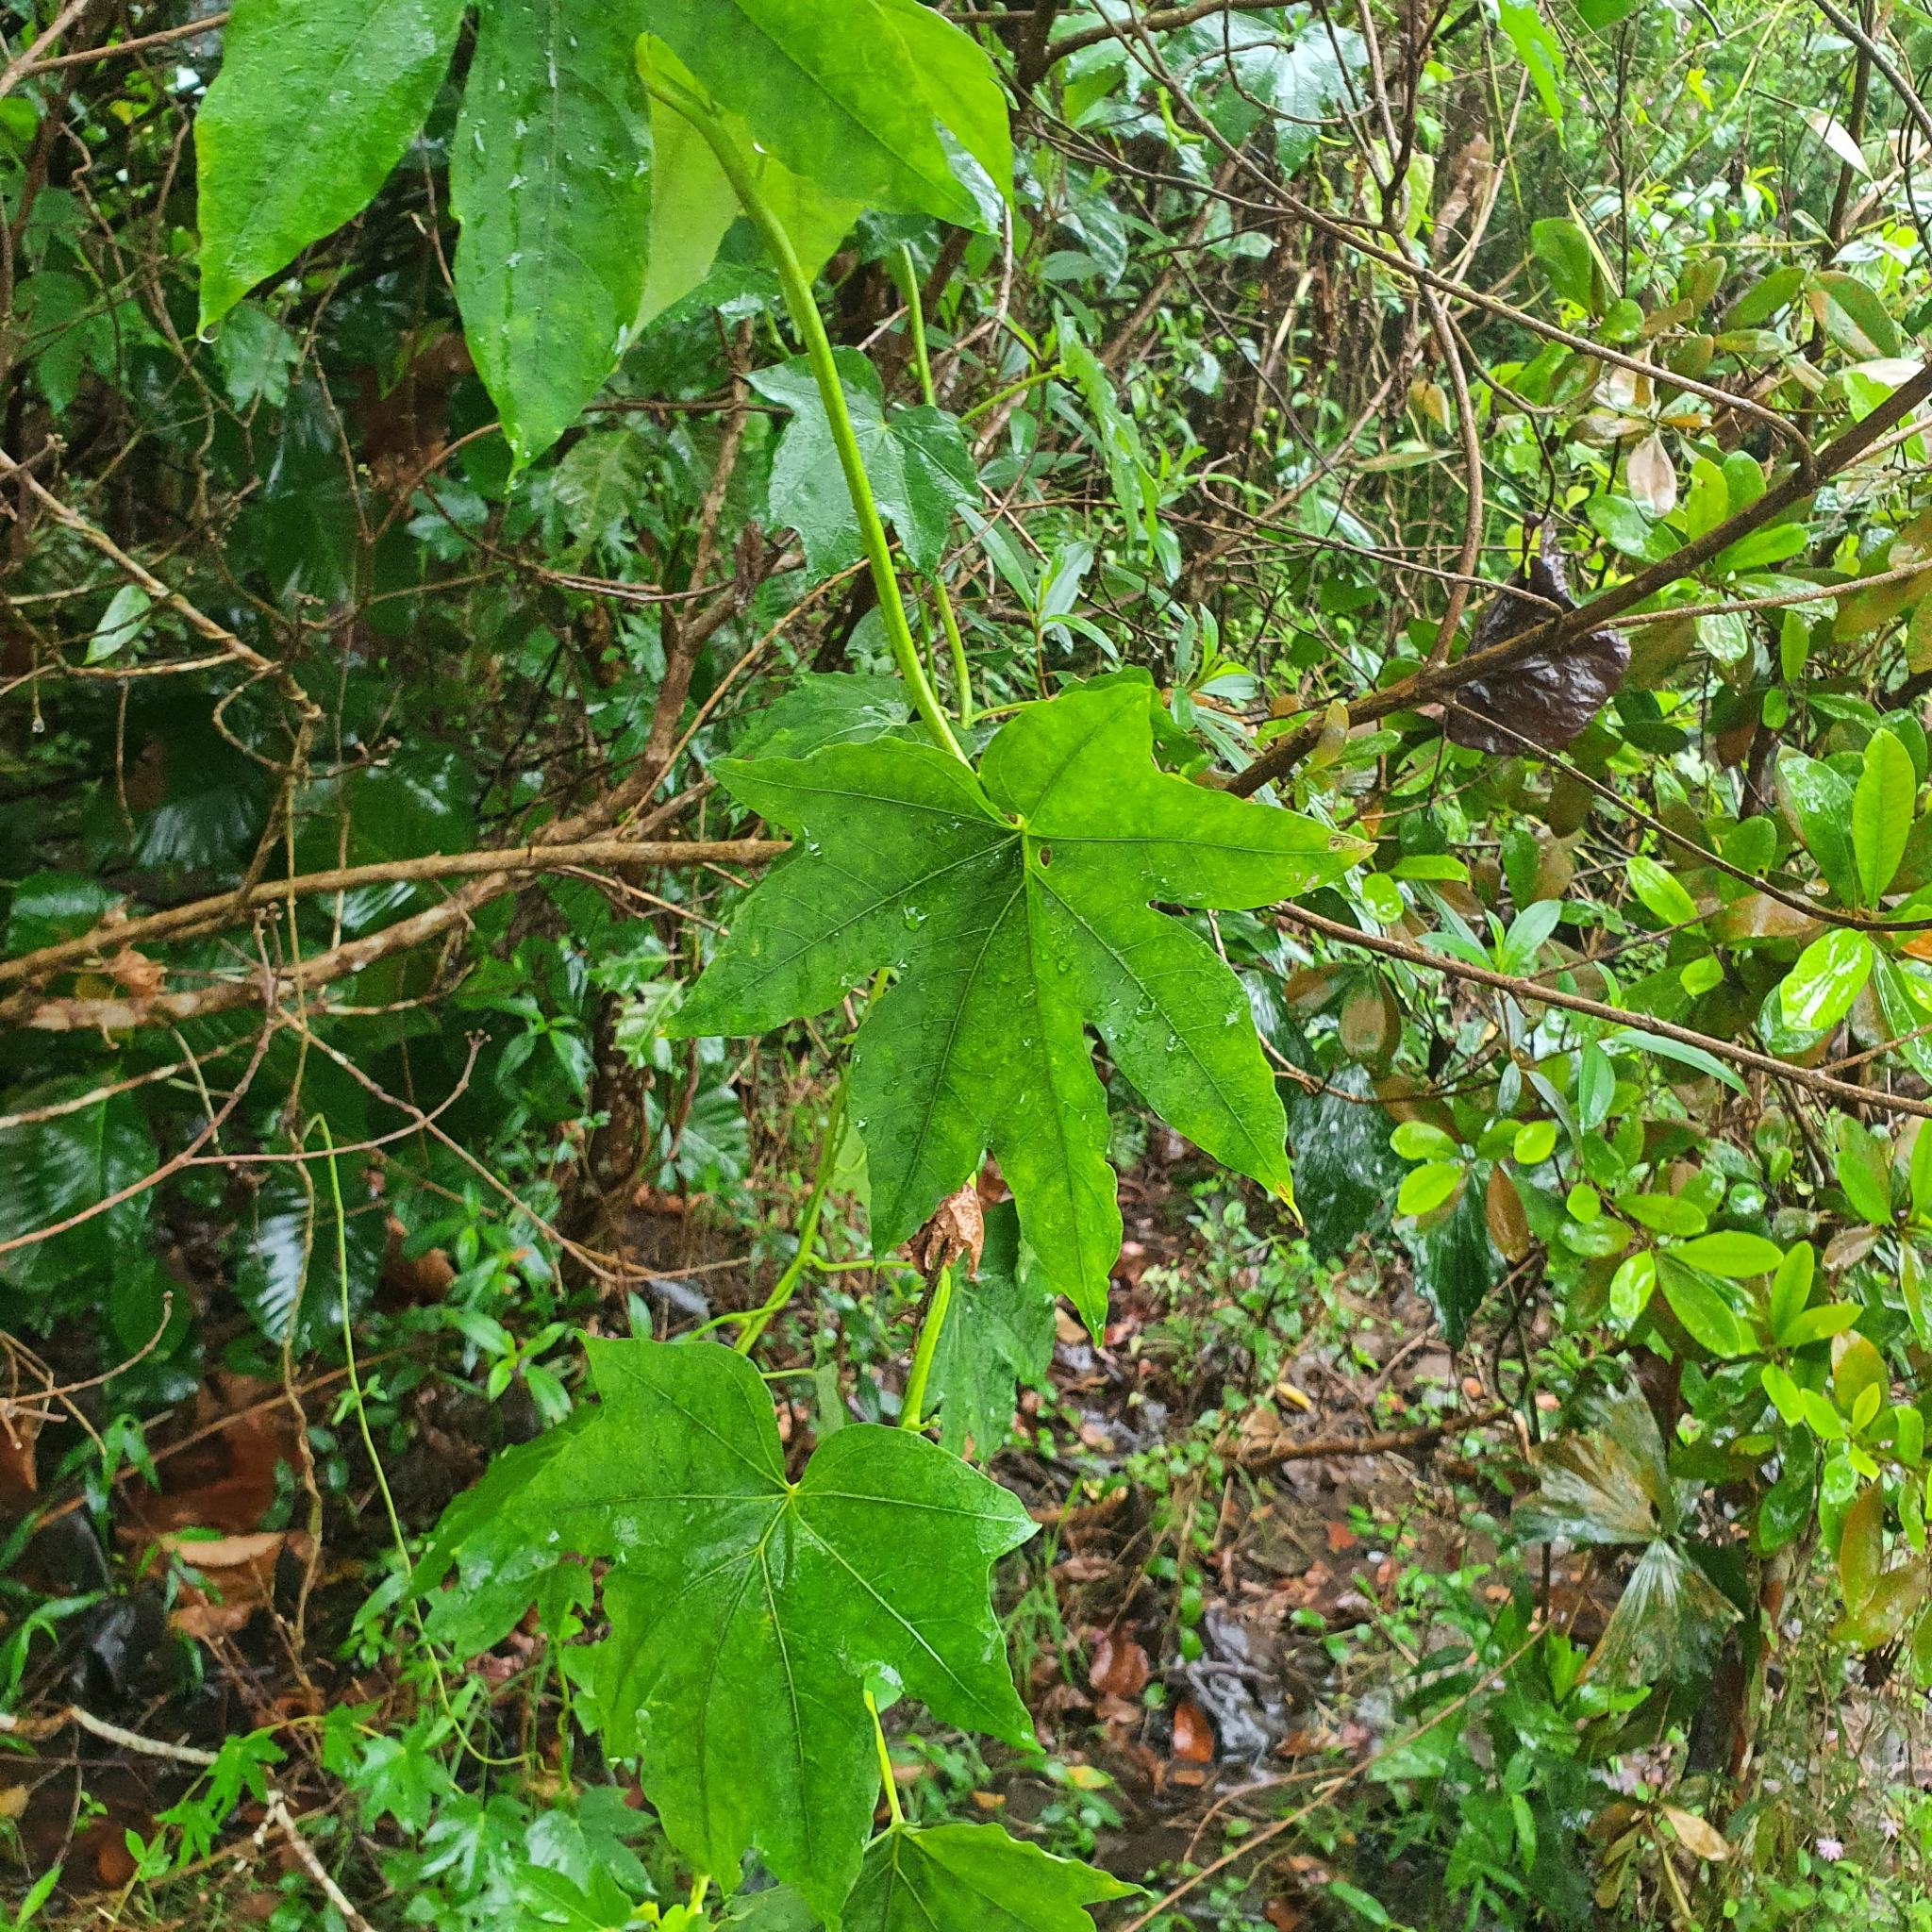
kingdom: Plantae
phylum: Tracheophyta
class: Magnoliopsida
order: Solanales
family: Convolvulaceae
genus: Ipomoea
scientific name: Ipomoea mauritiana
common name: Mauritanian convolvulus
